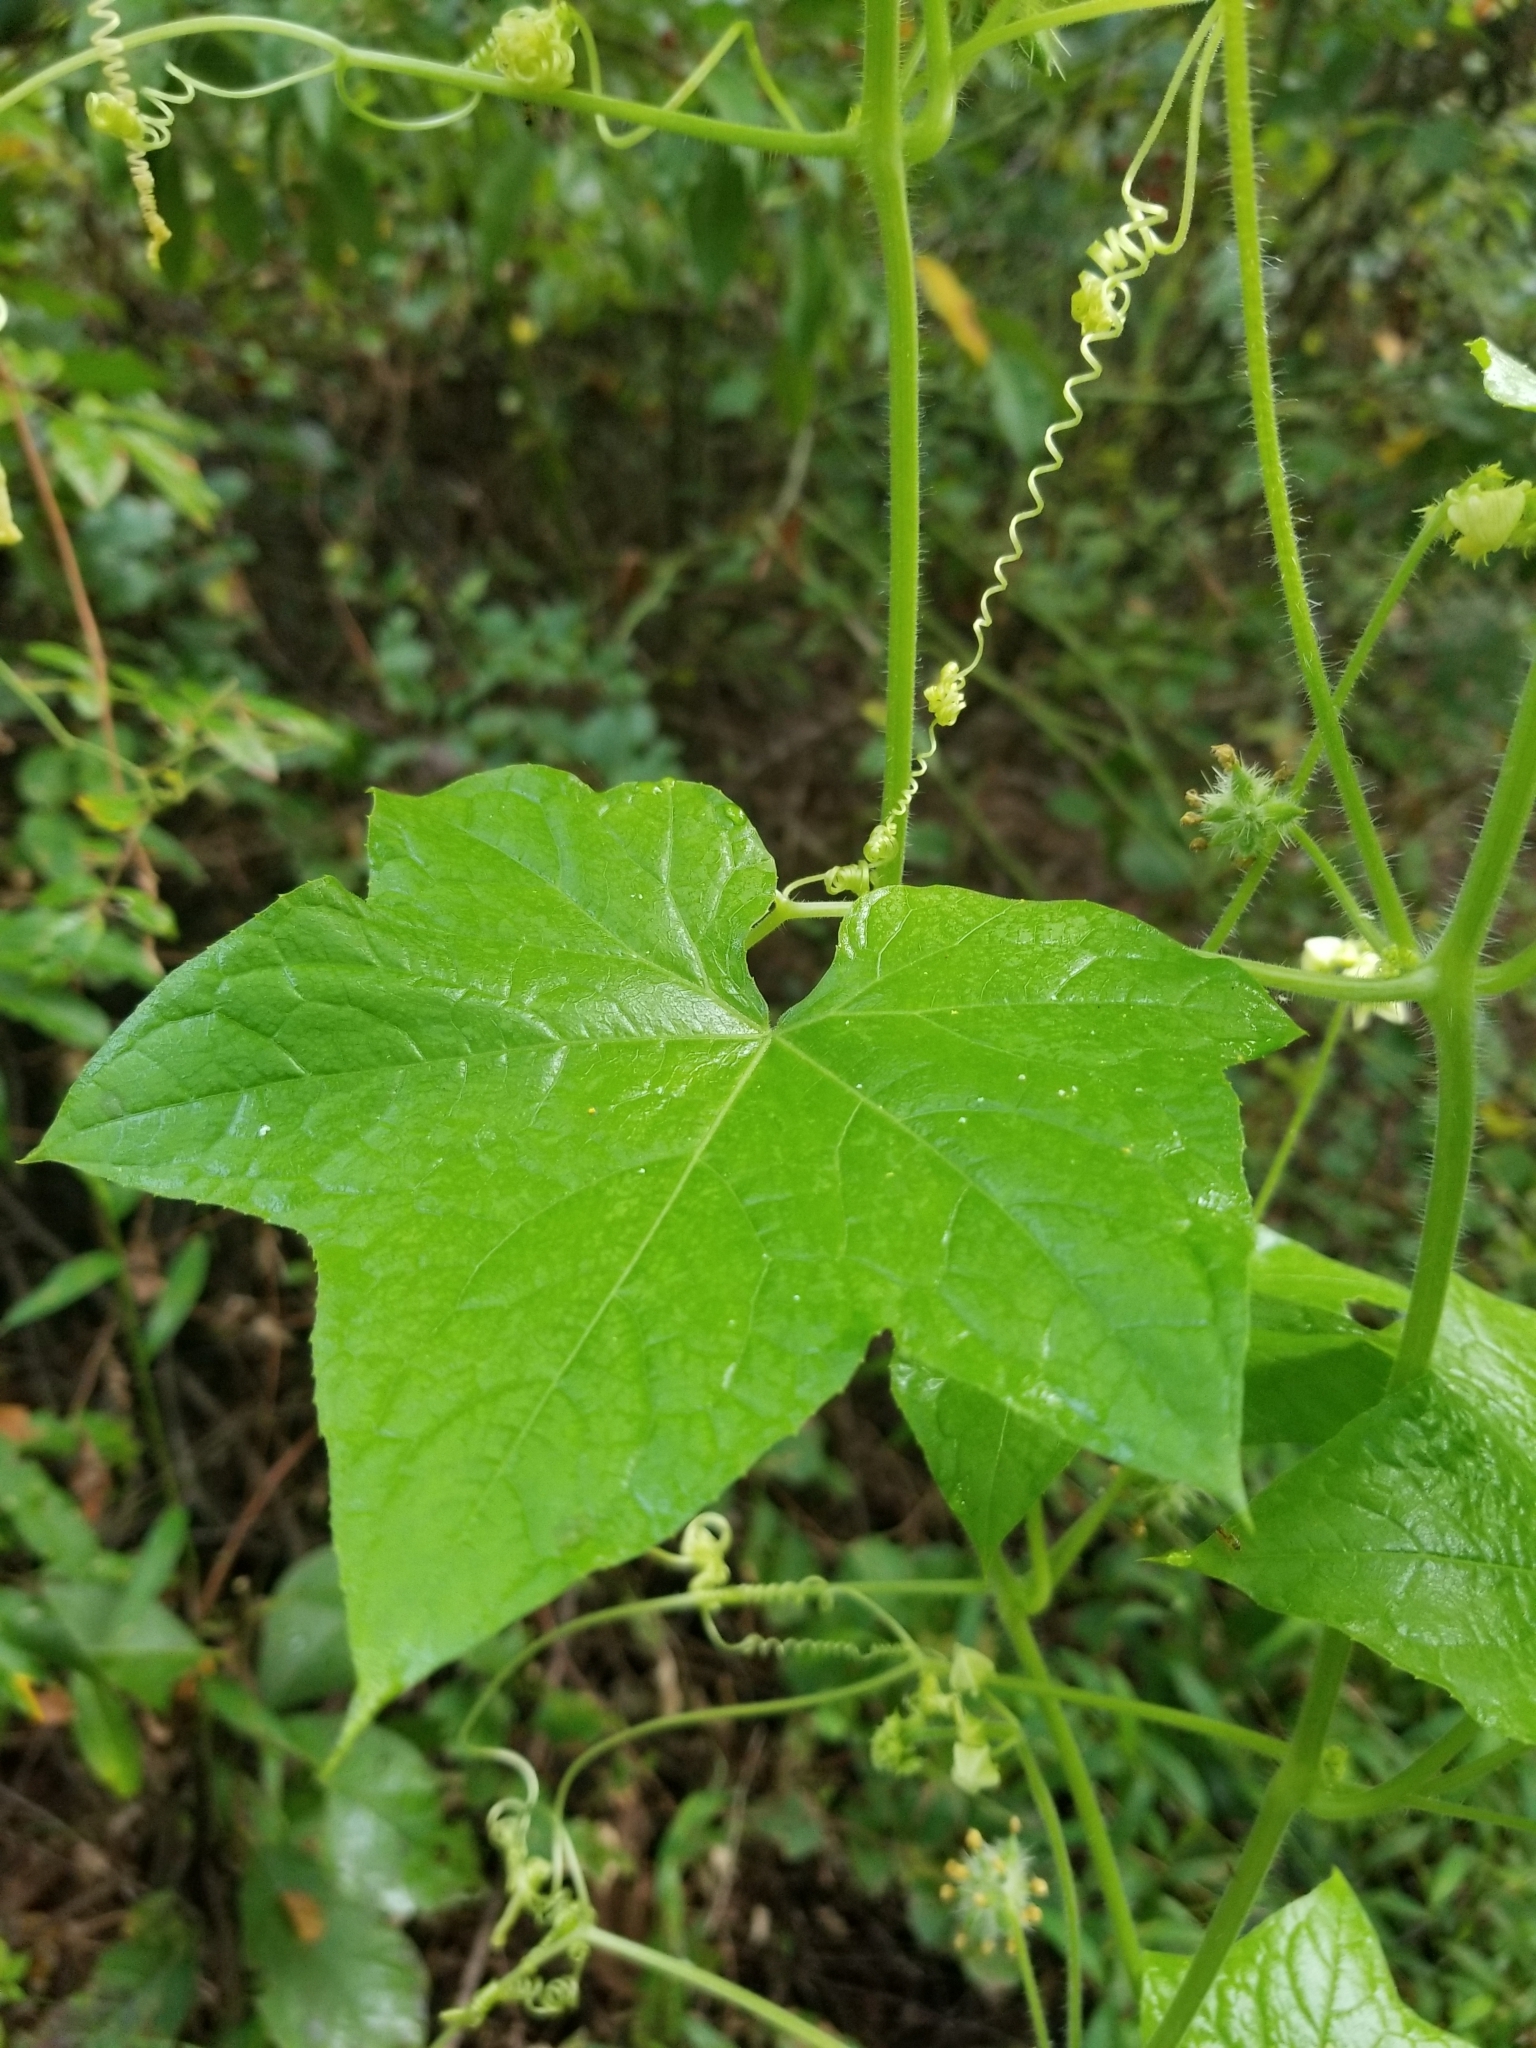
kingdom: Plantae
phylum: Tracheophyta
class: Magnoliopsida
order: Cucurbitales
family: Cucurbitaceae
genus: Sicyos
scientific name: Sicyos angulatus
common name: Angled burr cucumber
